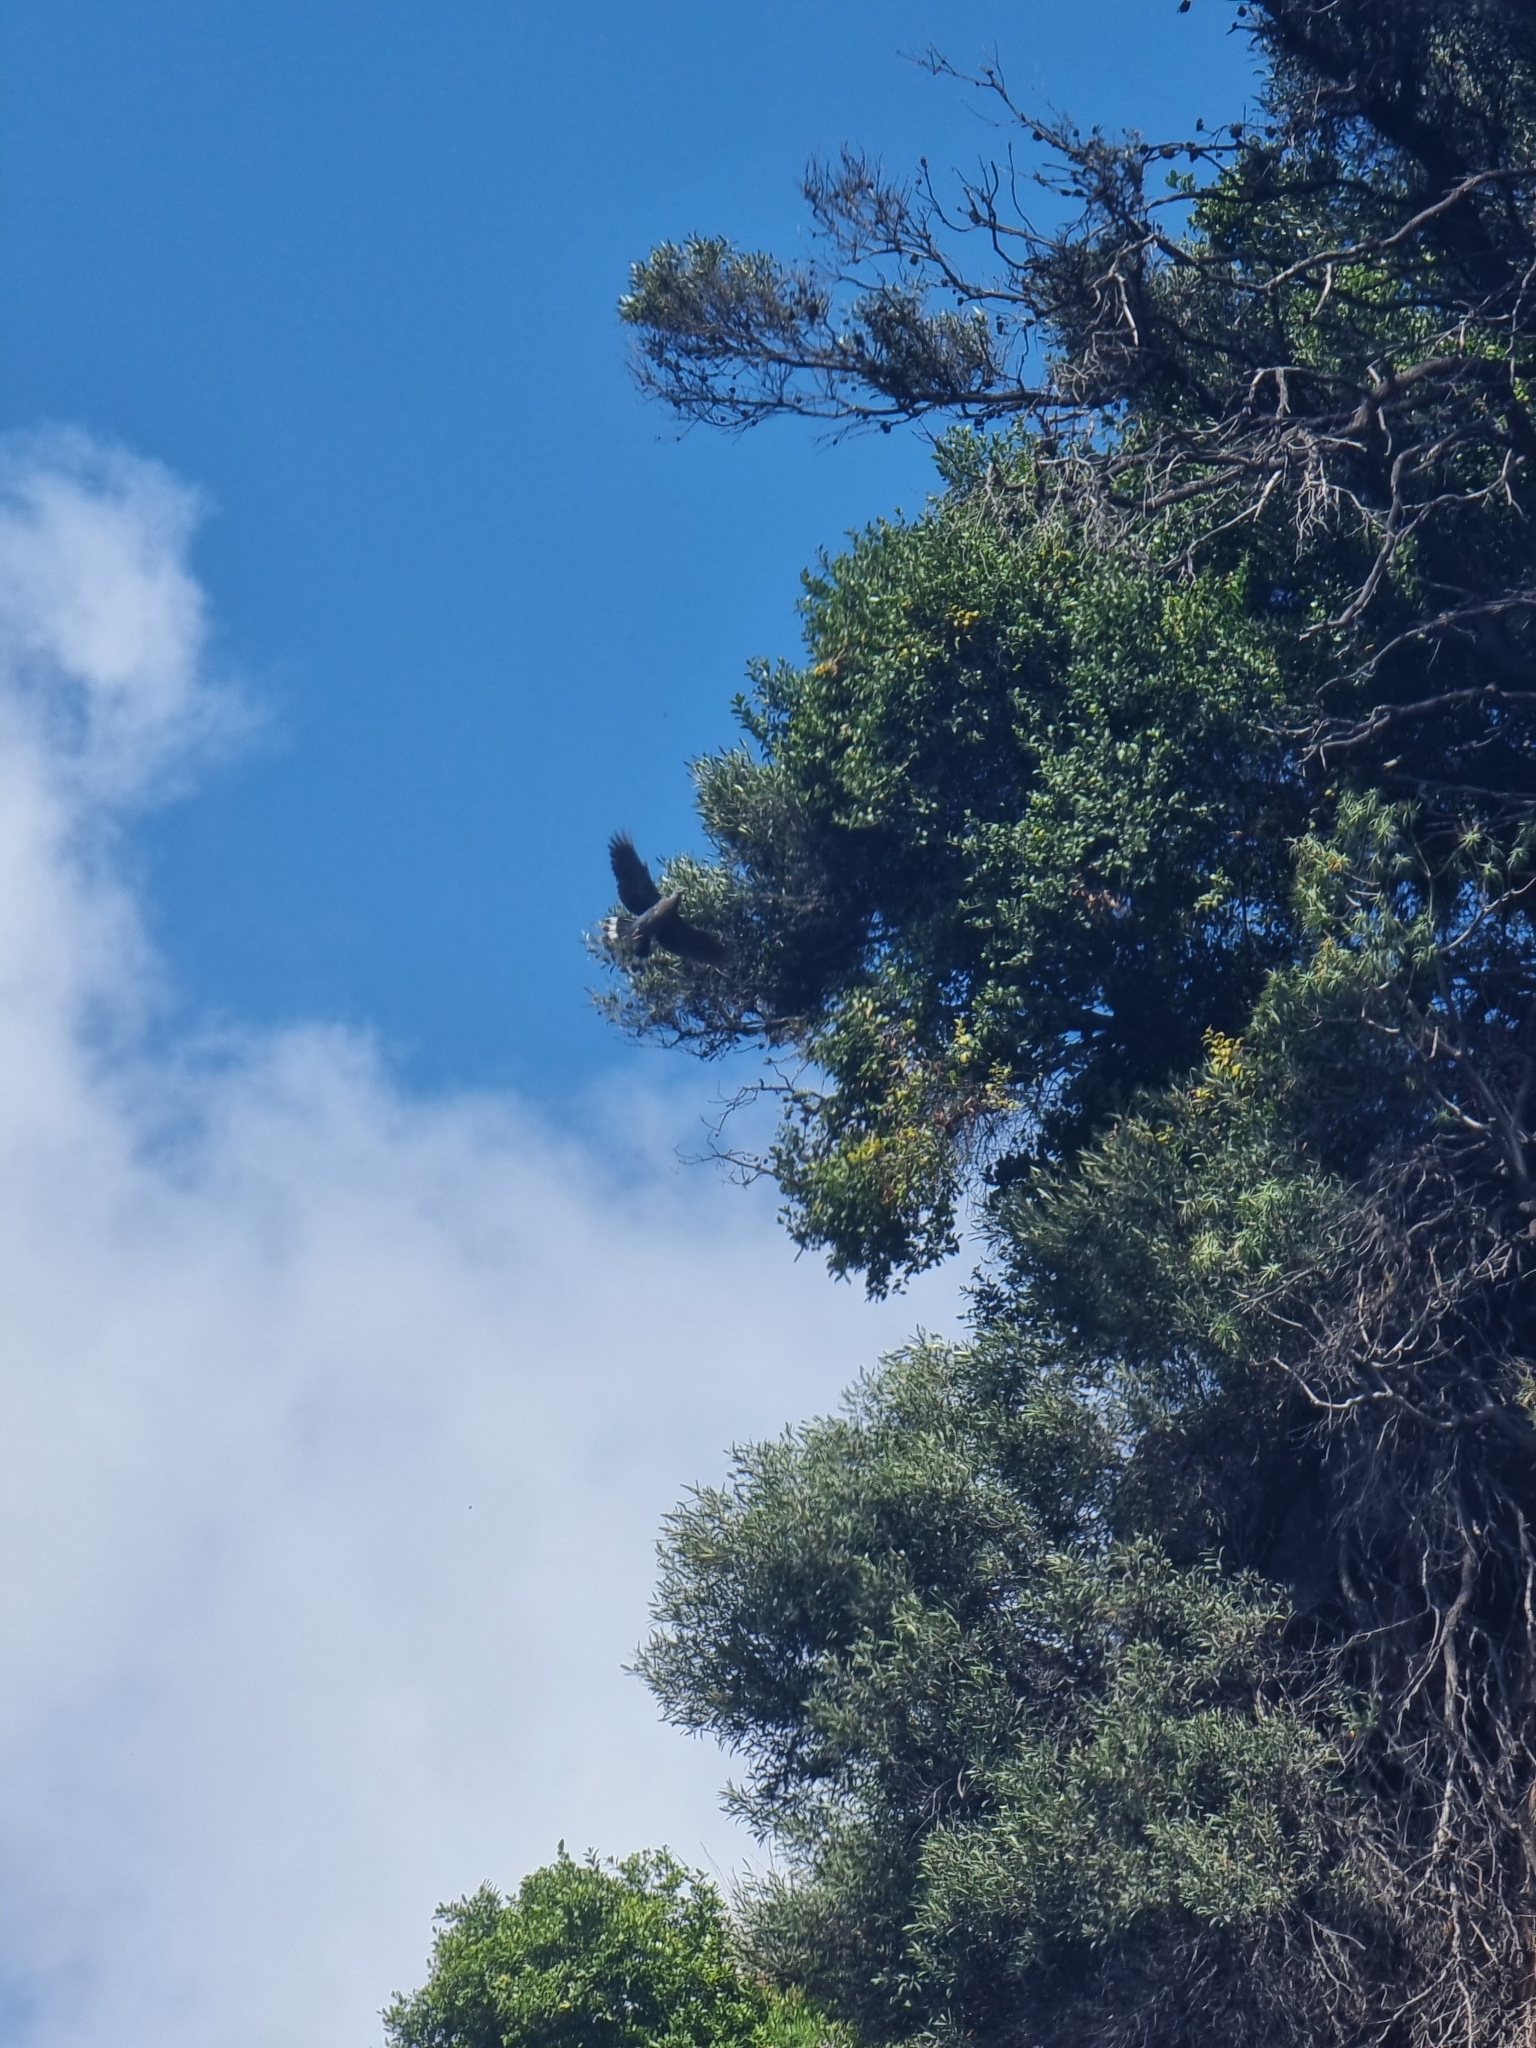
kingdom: Animalia
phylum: Chordata
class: Aves
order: Columbiformes
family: Columbidae
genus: Columba
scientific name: Columba trocaz
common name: Trocaz pigeon
